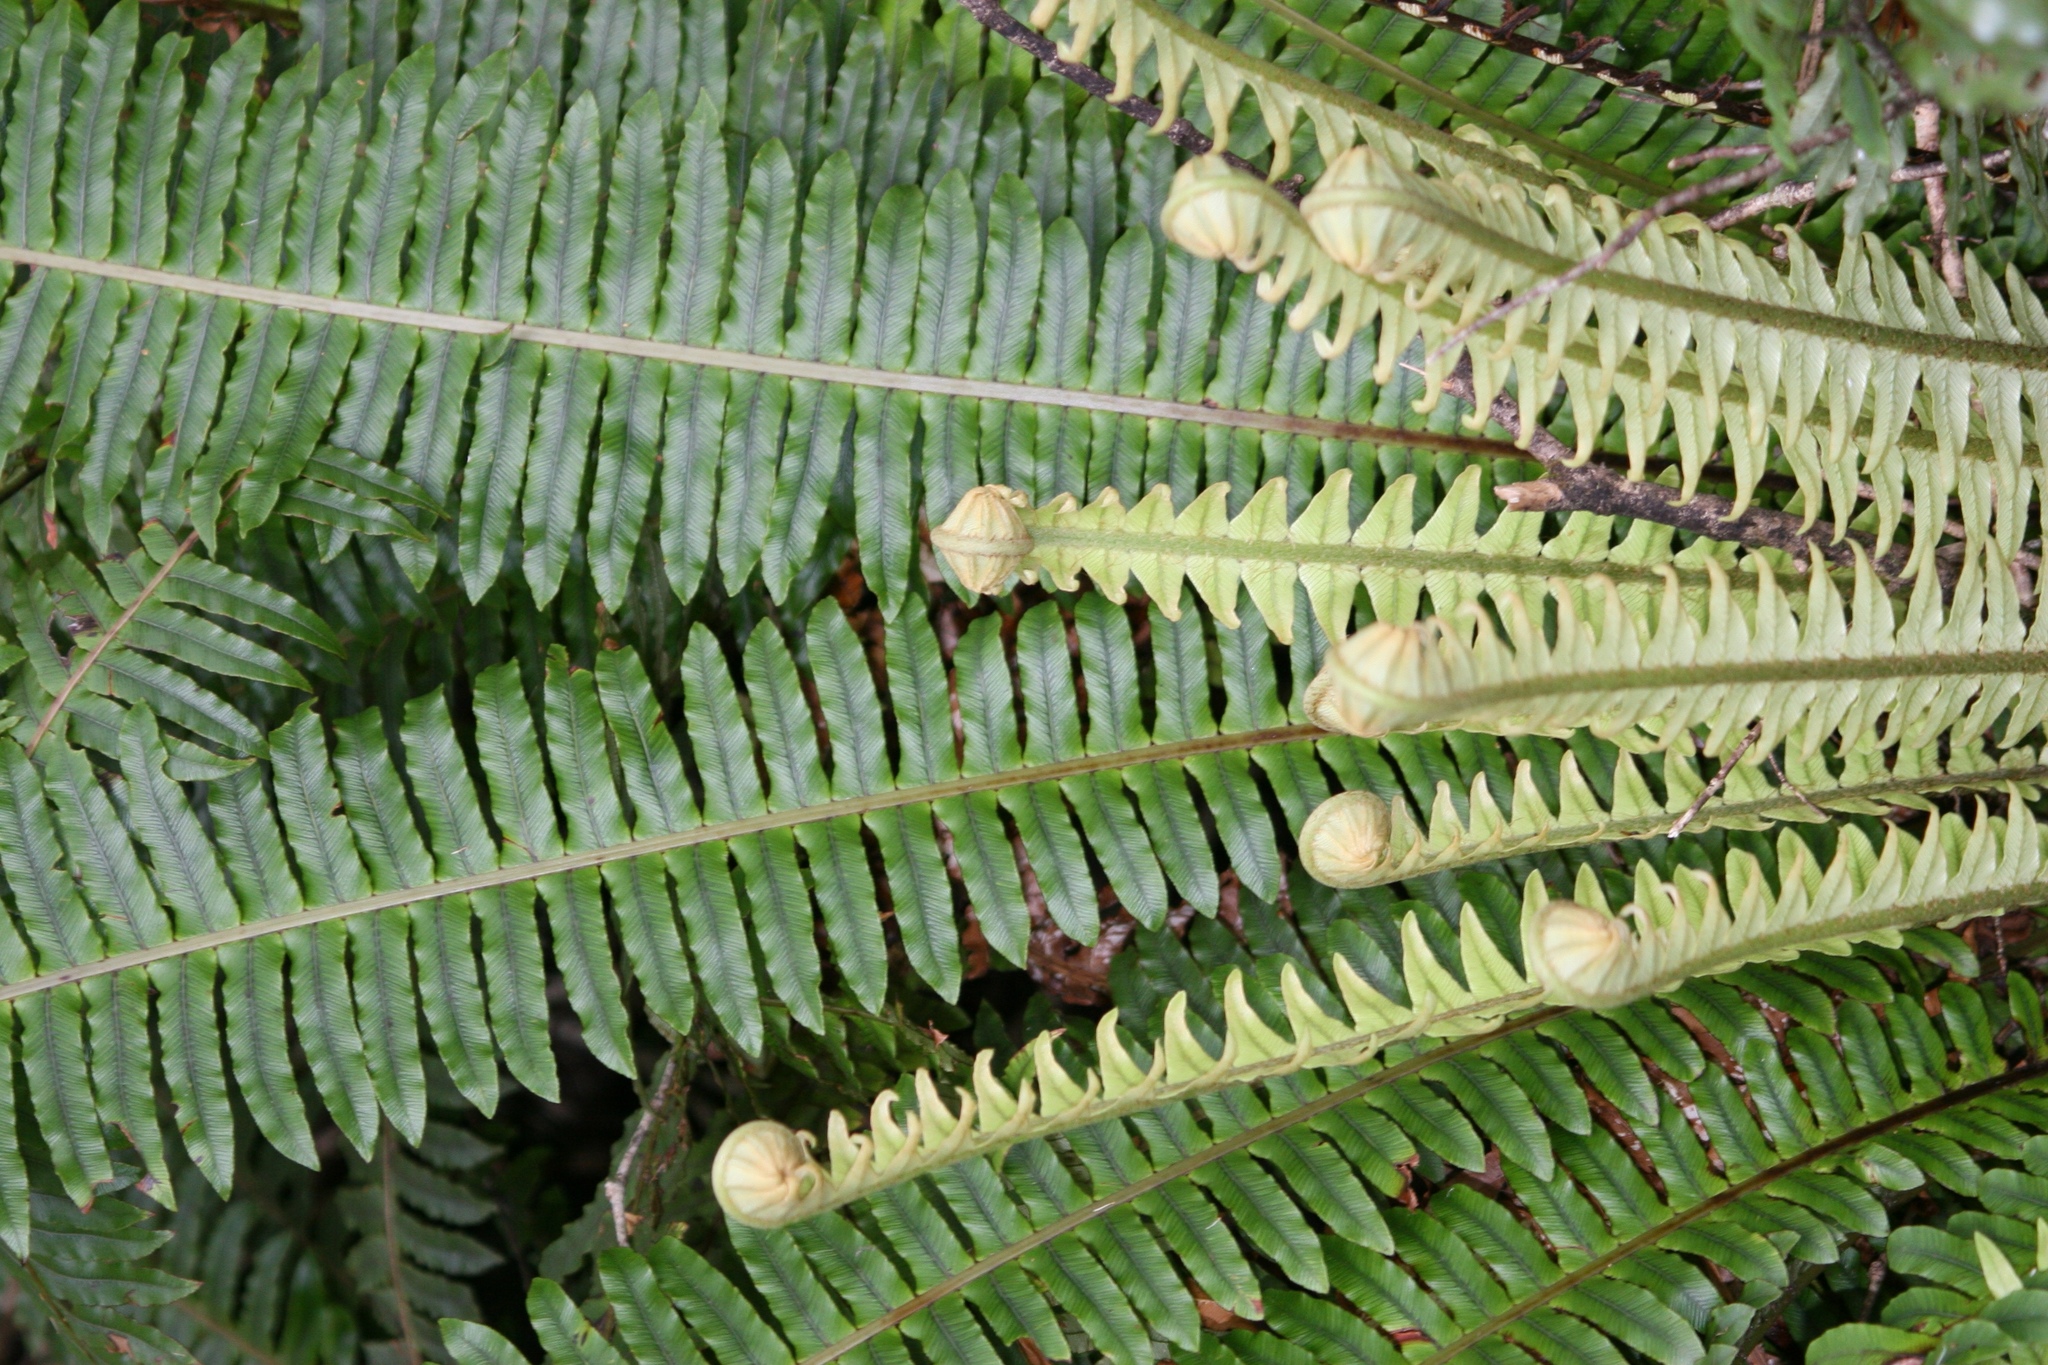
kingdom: Plantae
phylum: Tracheophyta
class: Polypodiopsida
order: Polypodiales
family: Blechnaceae
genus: Lomaria
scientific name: Lomaria discolor
